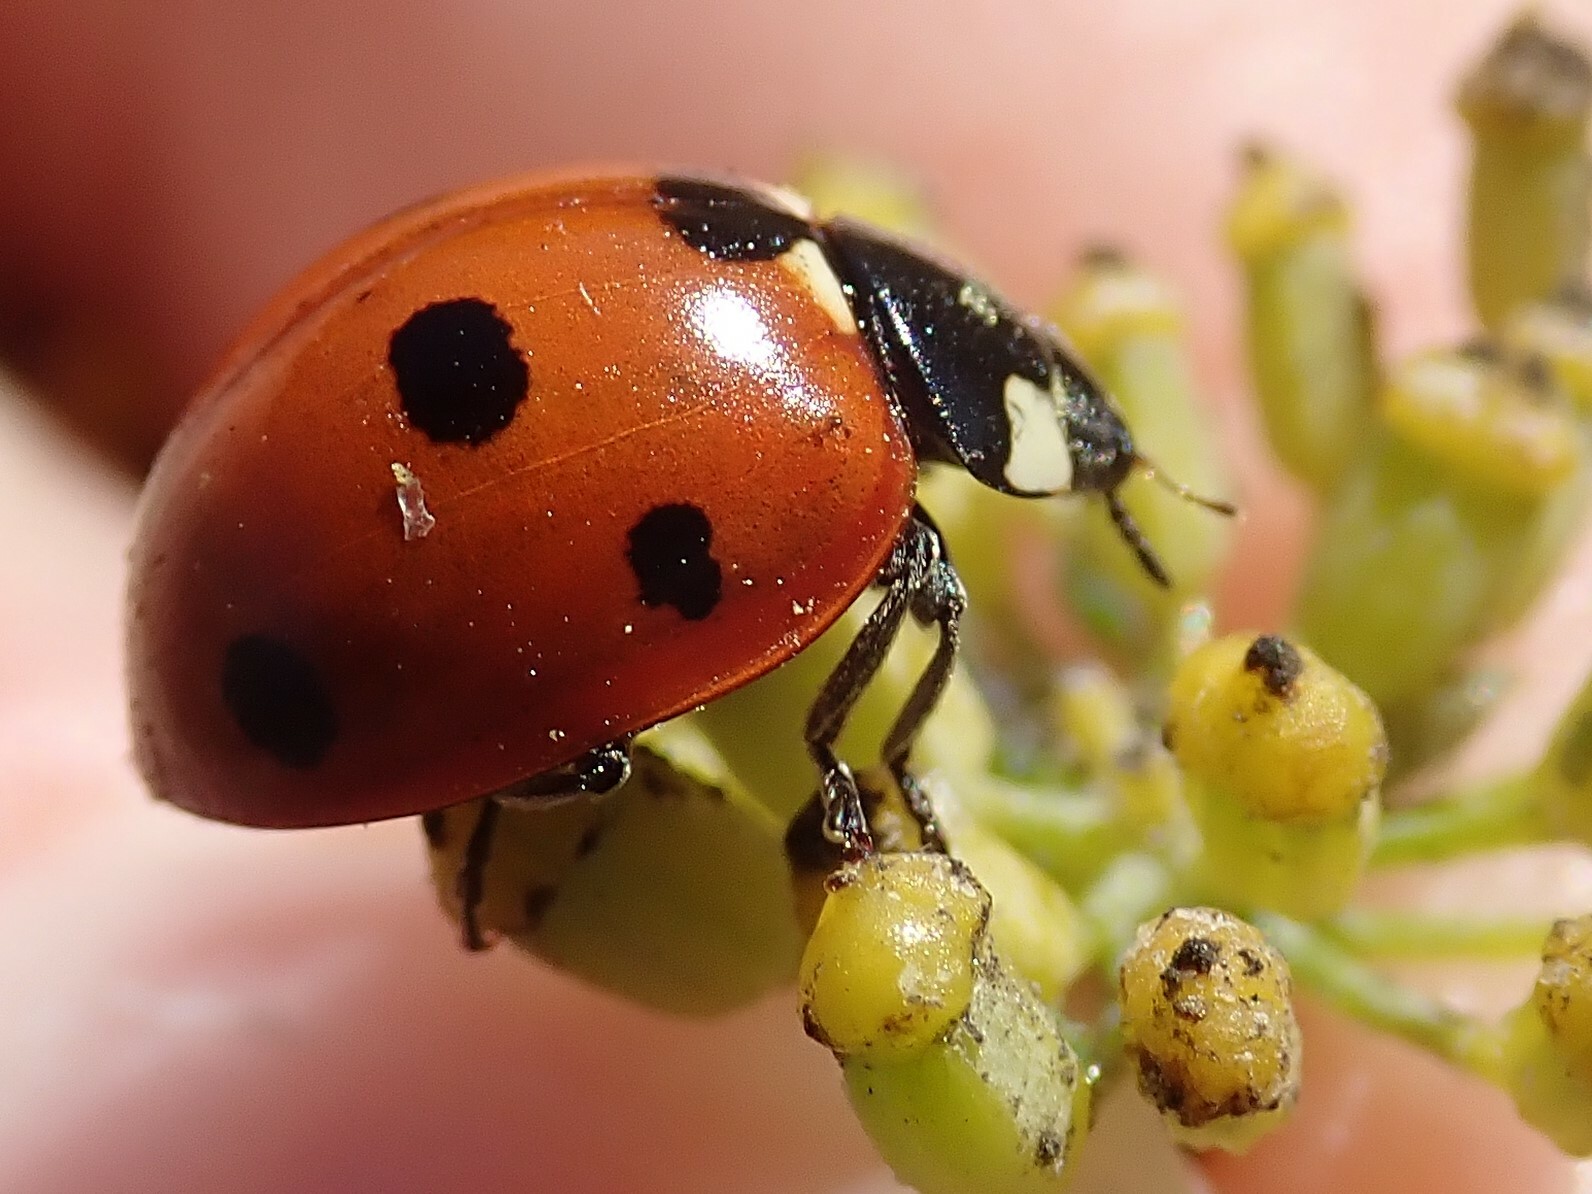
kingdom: Animalia
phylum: Arthropoda
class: Insecta
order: Coleoptera
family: Coccinellidae
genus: Coccinella
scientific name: Coccinella septempunctata
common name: Sevenspotted lady beetle
